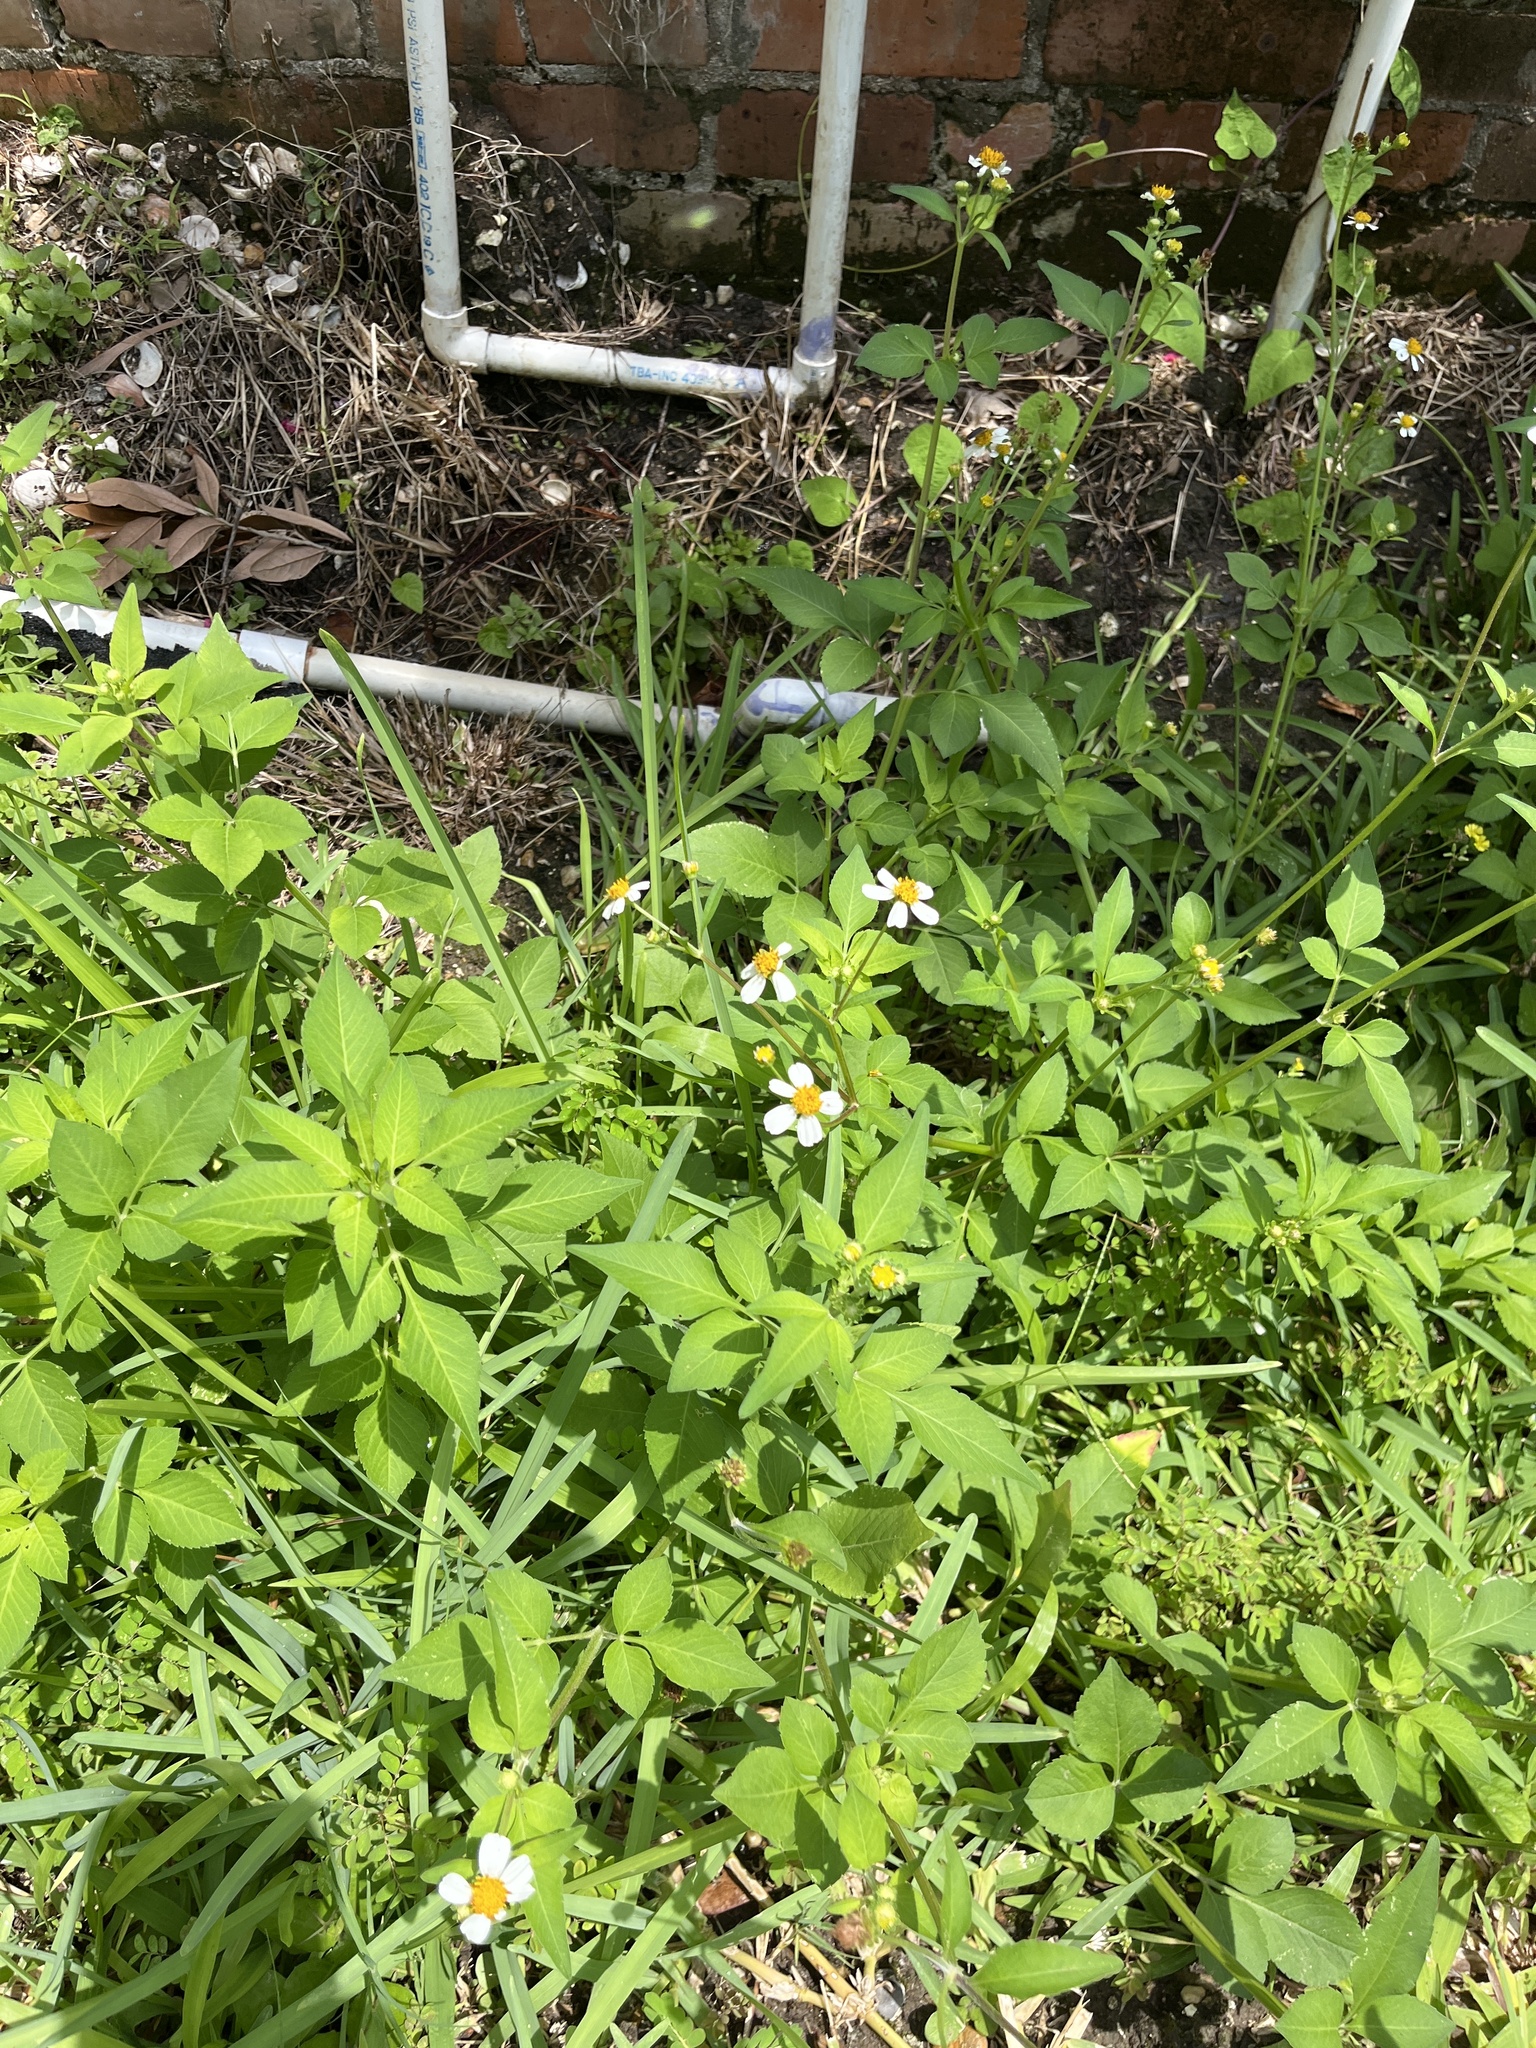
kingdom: Plantae
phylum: Tracheophyta
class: Magnoliopsida
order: Asterales
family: Asteraceae
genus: Bidens
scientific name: Bidens alba
